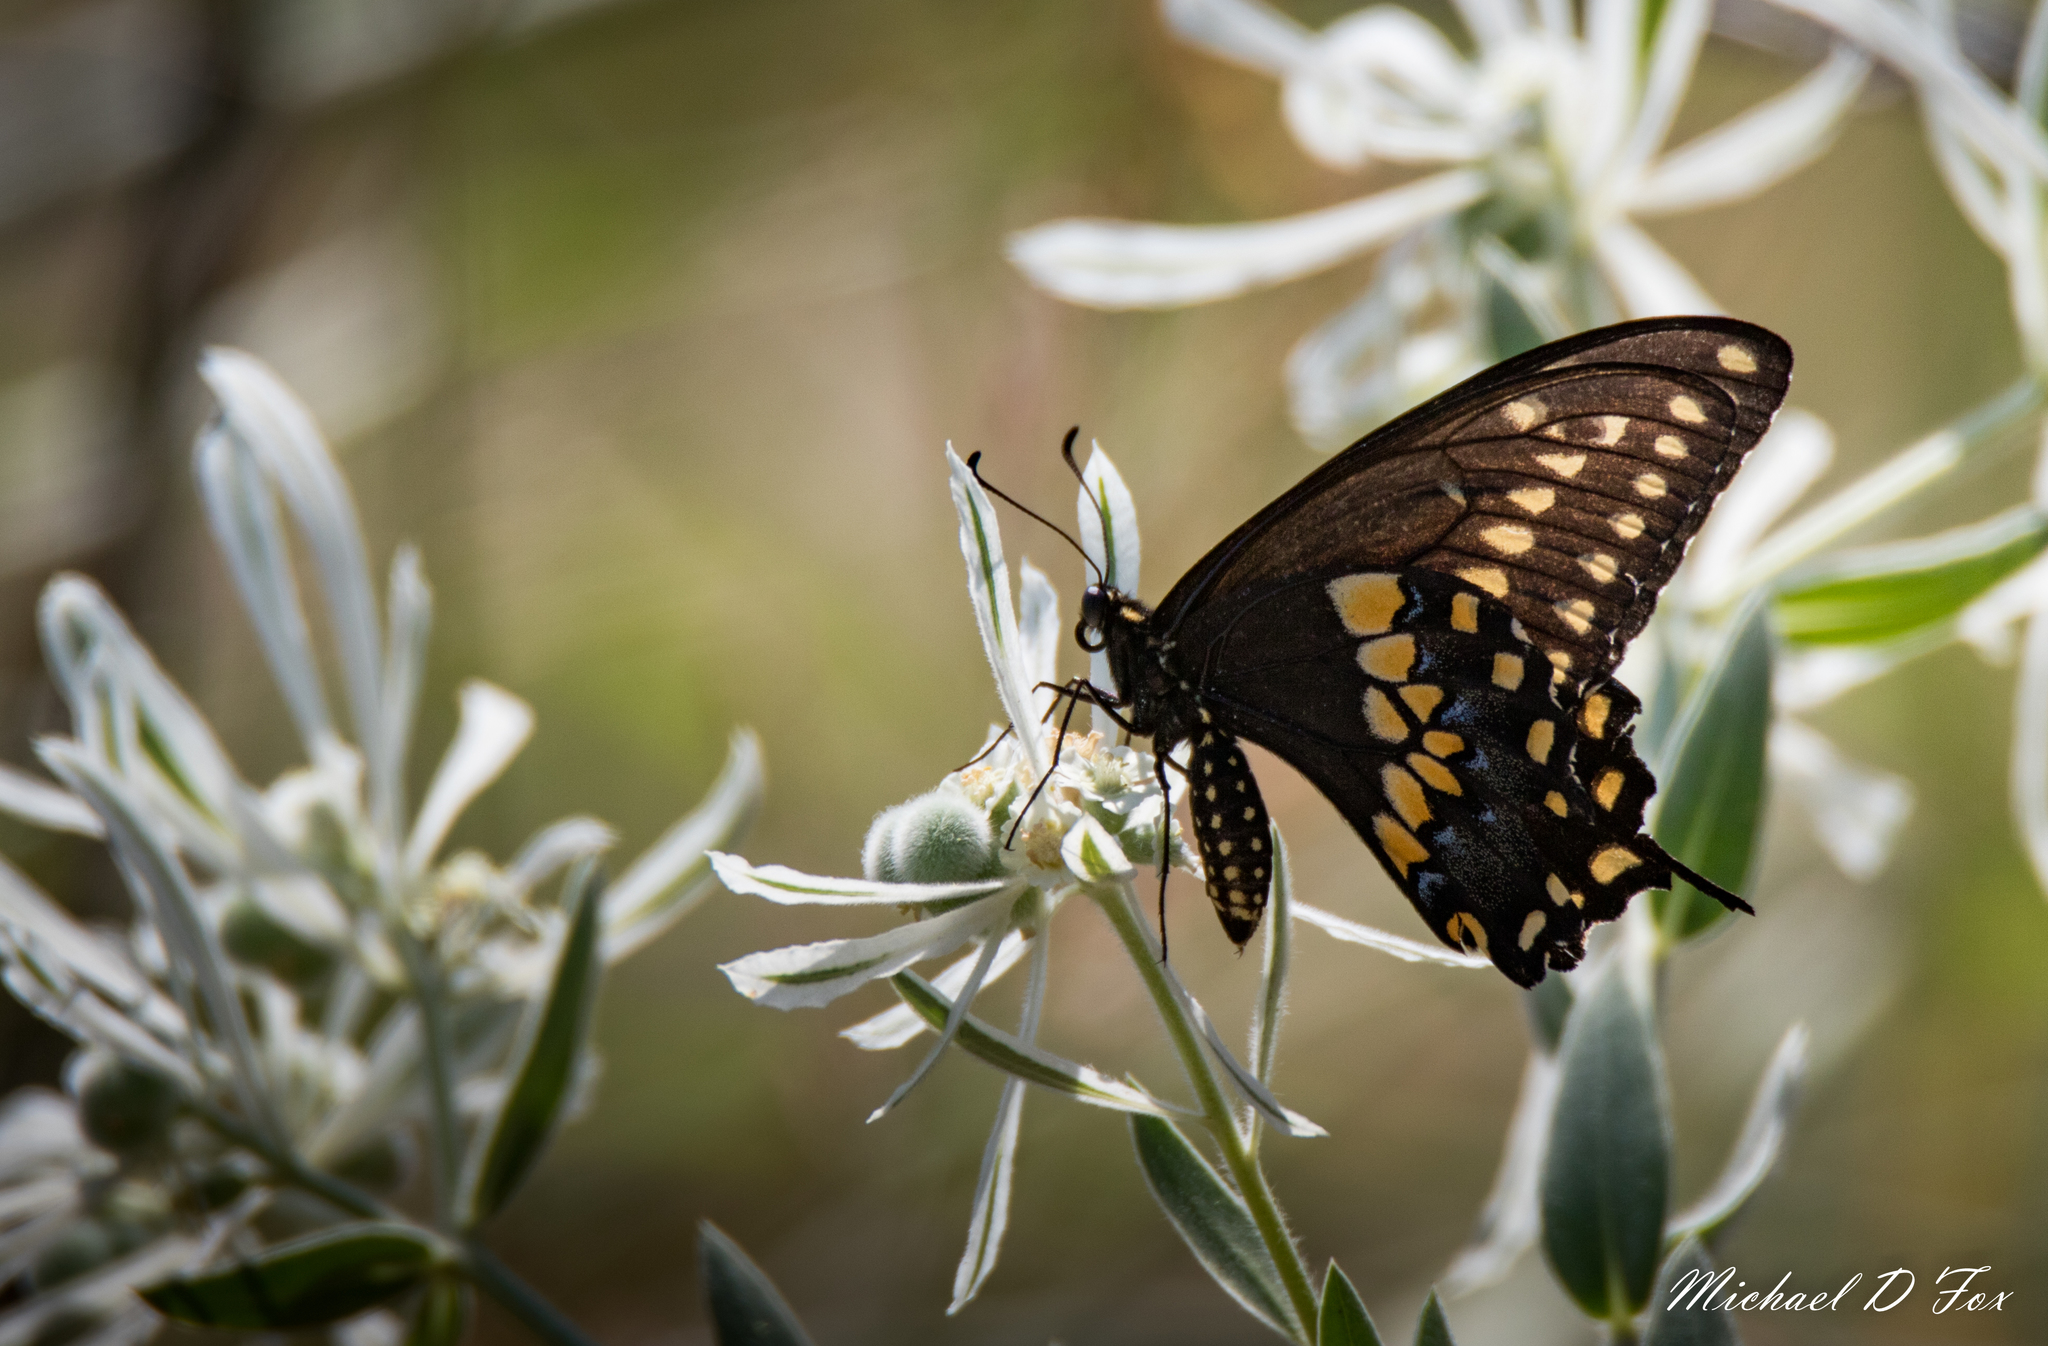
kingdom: Animalia
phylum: Arthropoda
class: Insecta
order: Lepidoptera
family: Papilionidae
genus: Papilio
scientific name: Papilio polyxenes
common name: Black swallowtail
